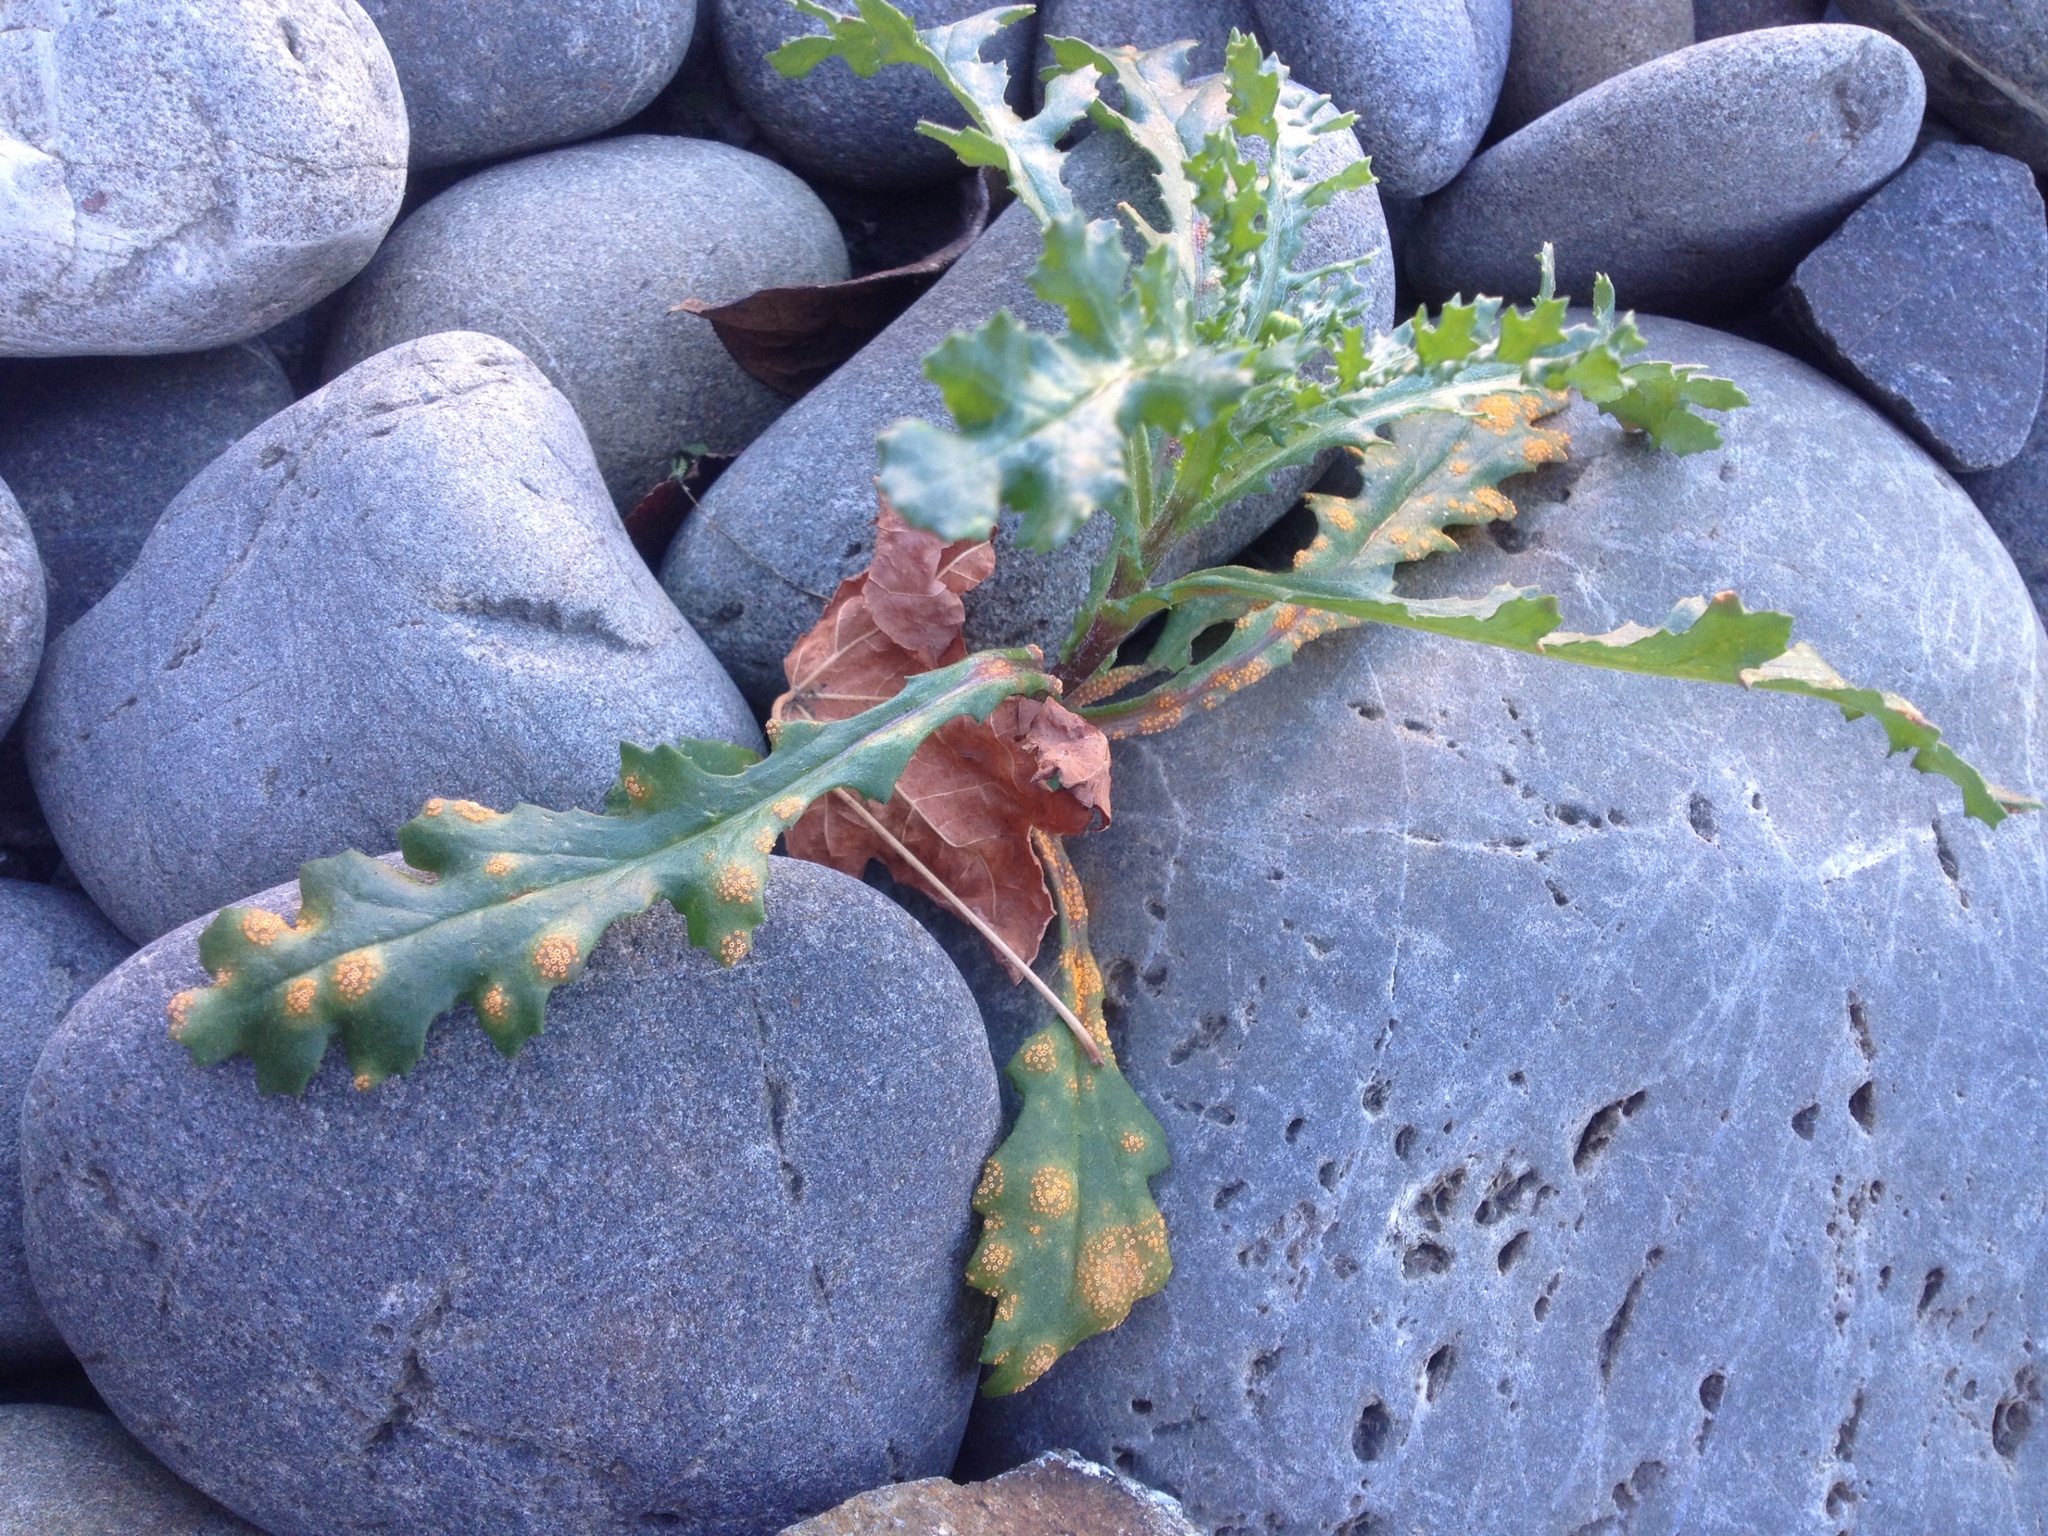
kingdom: Fungi
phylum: Basidiomycota
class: Pucciniomycetes
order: Pucciniales
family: Pucciniaceae
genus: Puccinia
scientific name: Puccinia lagenophorae
